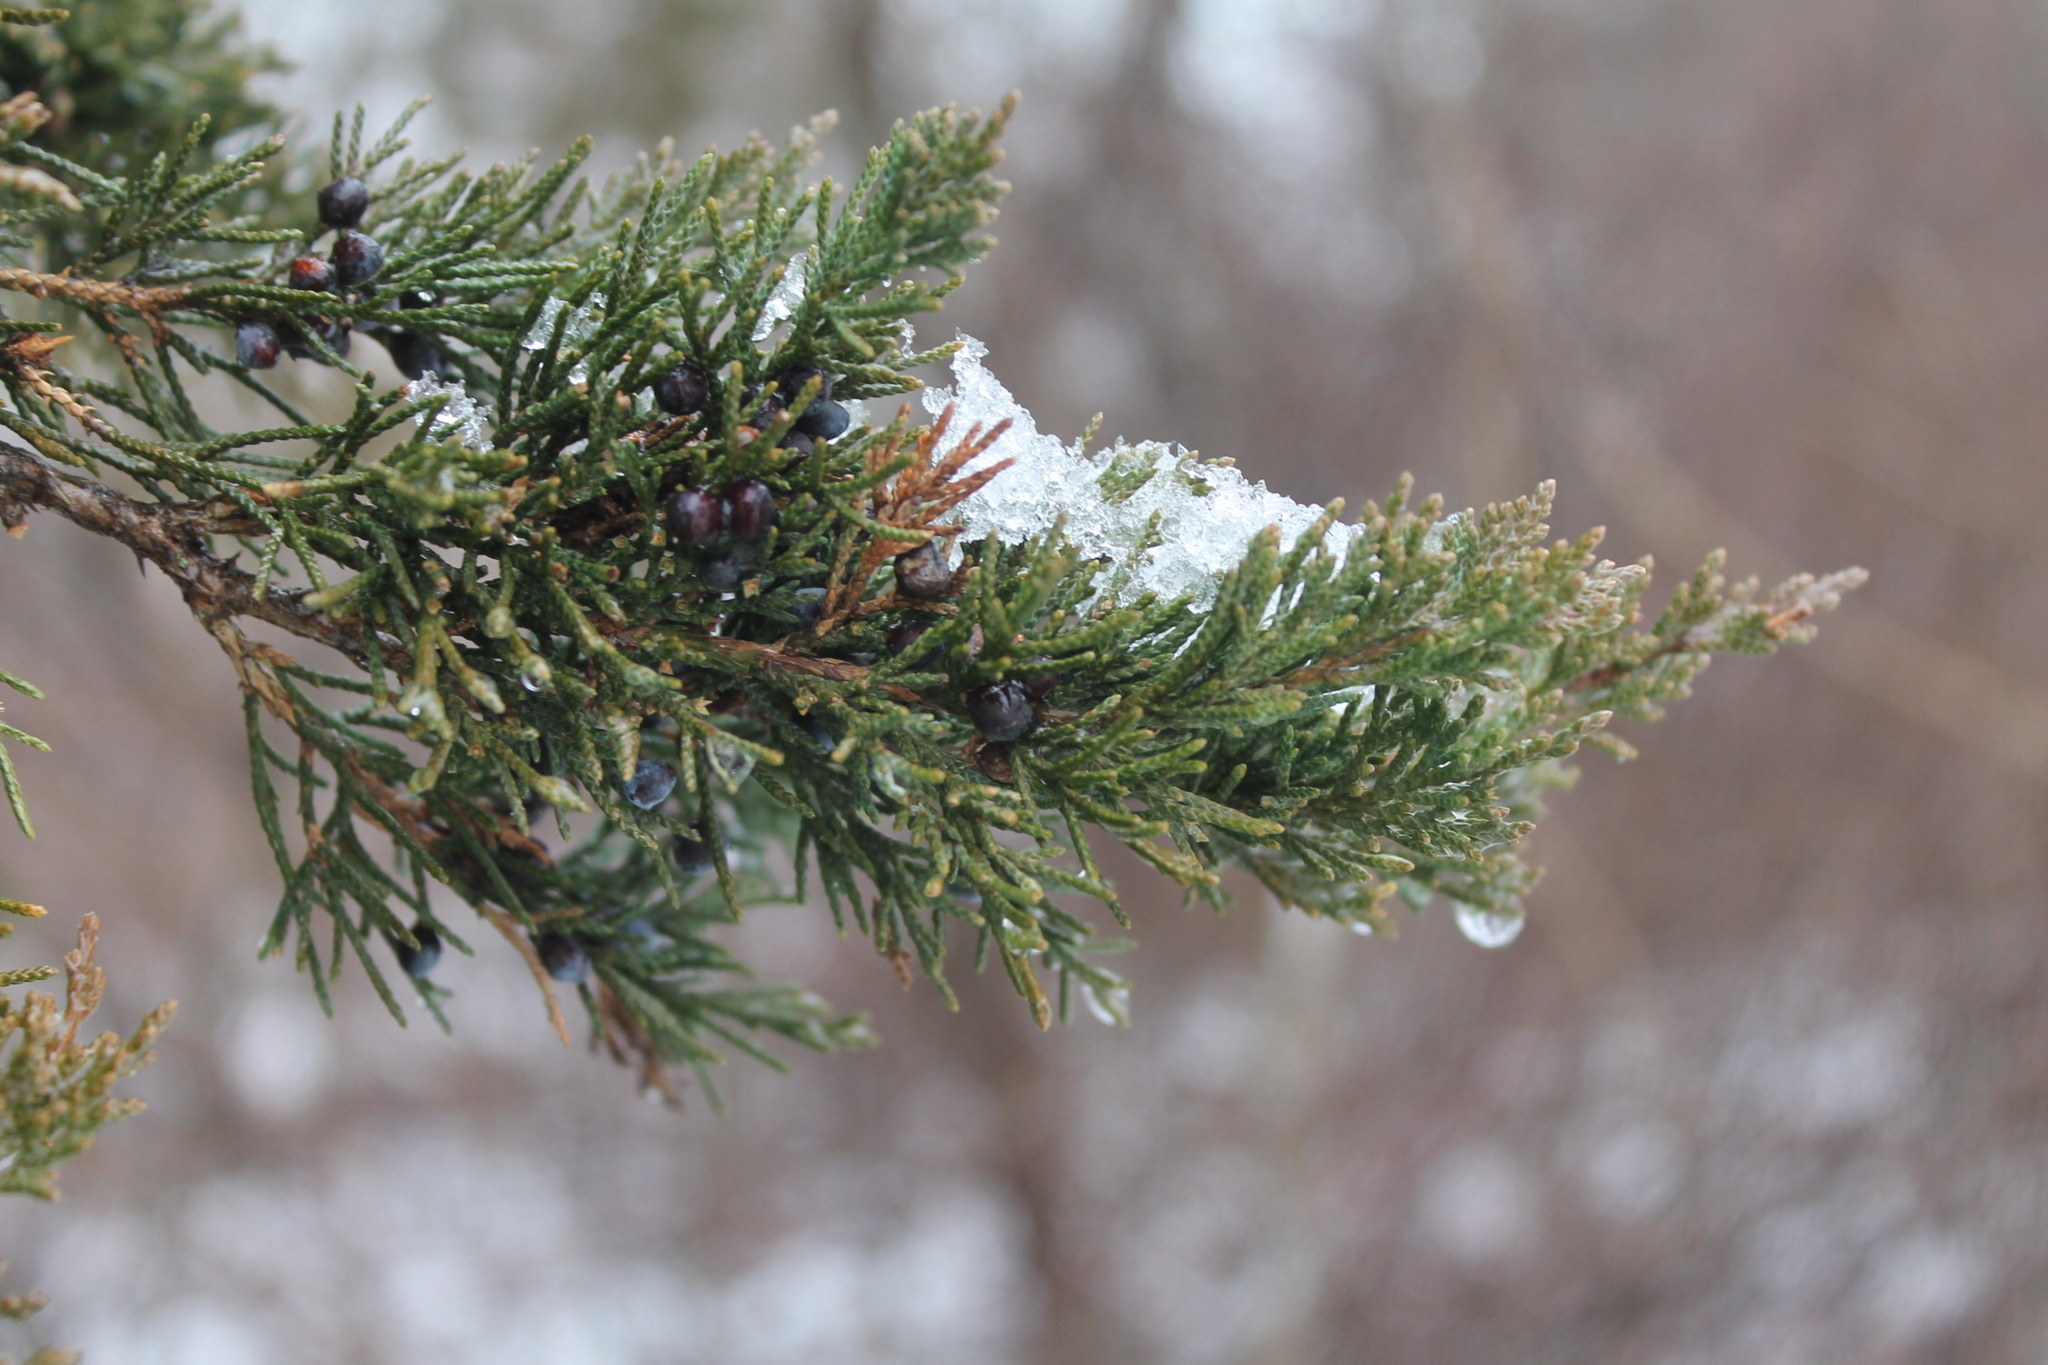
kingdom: Plantae
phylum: Tracheophyta
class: Pinopsida
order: Pinales
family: Cupressaceae
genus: Juniperus
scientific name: Juniperus virginiana
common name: Red juniper
